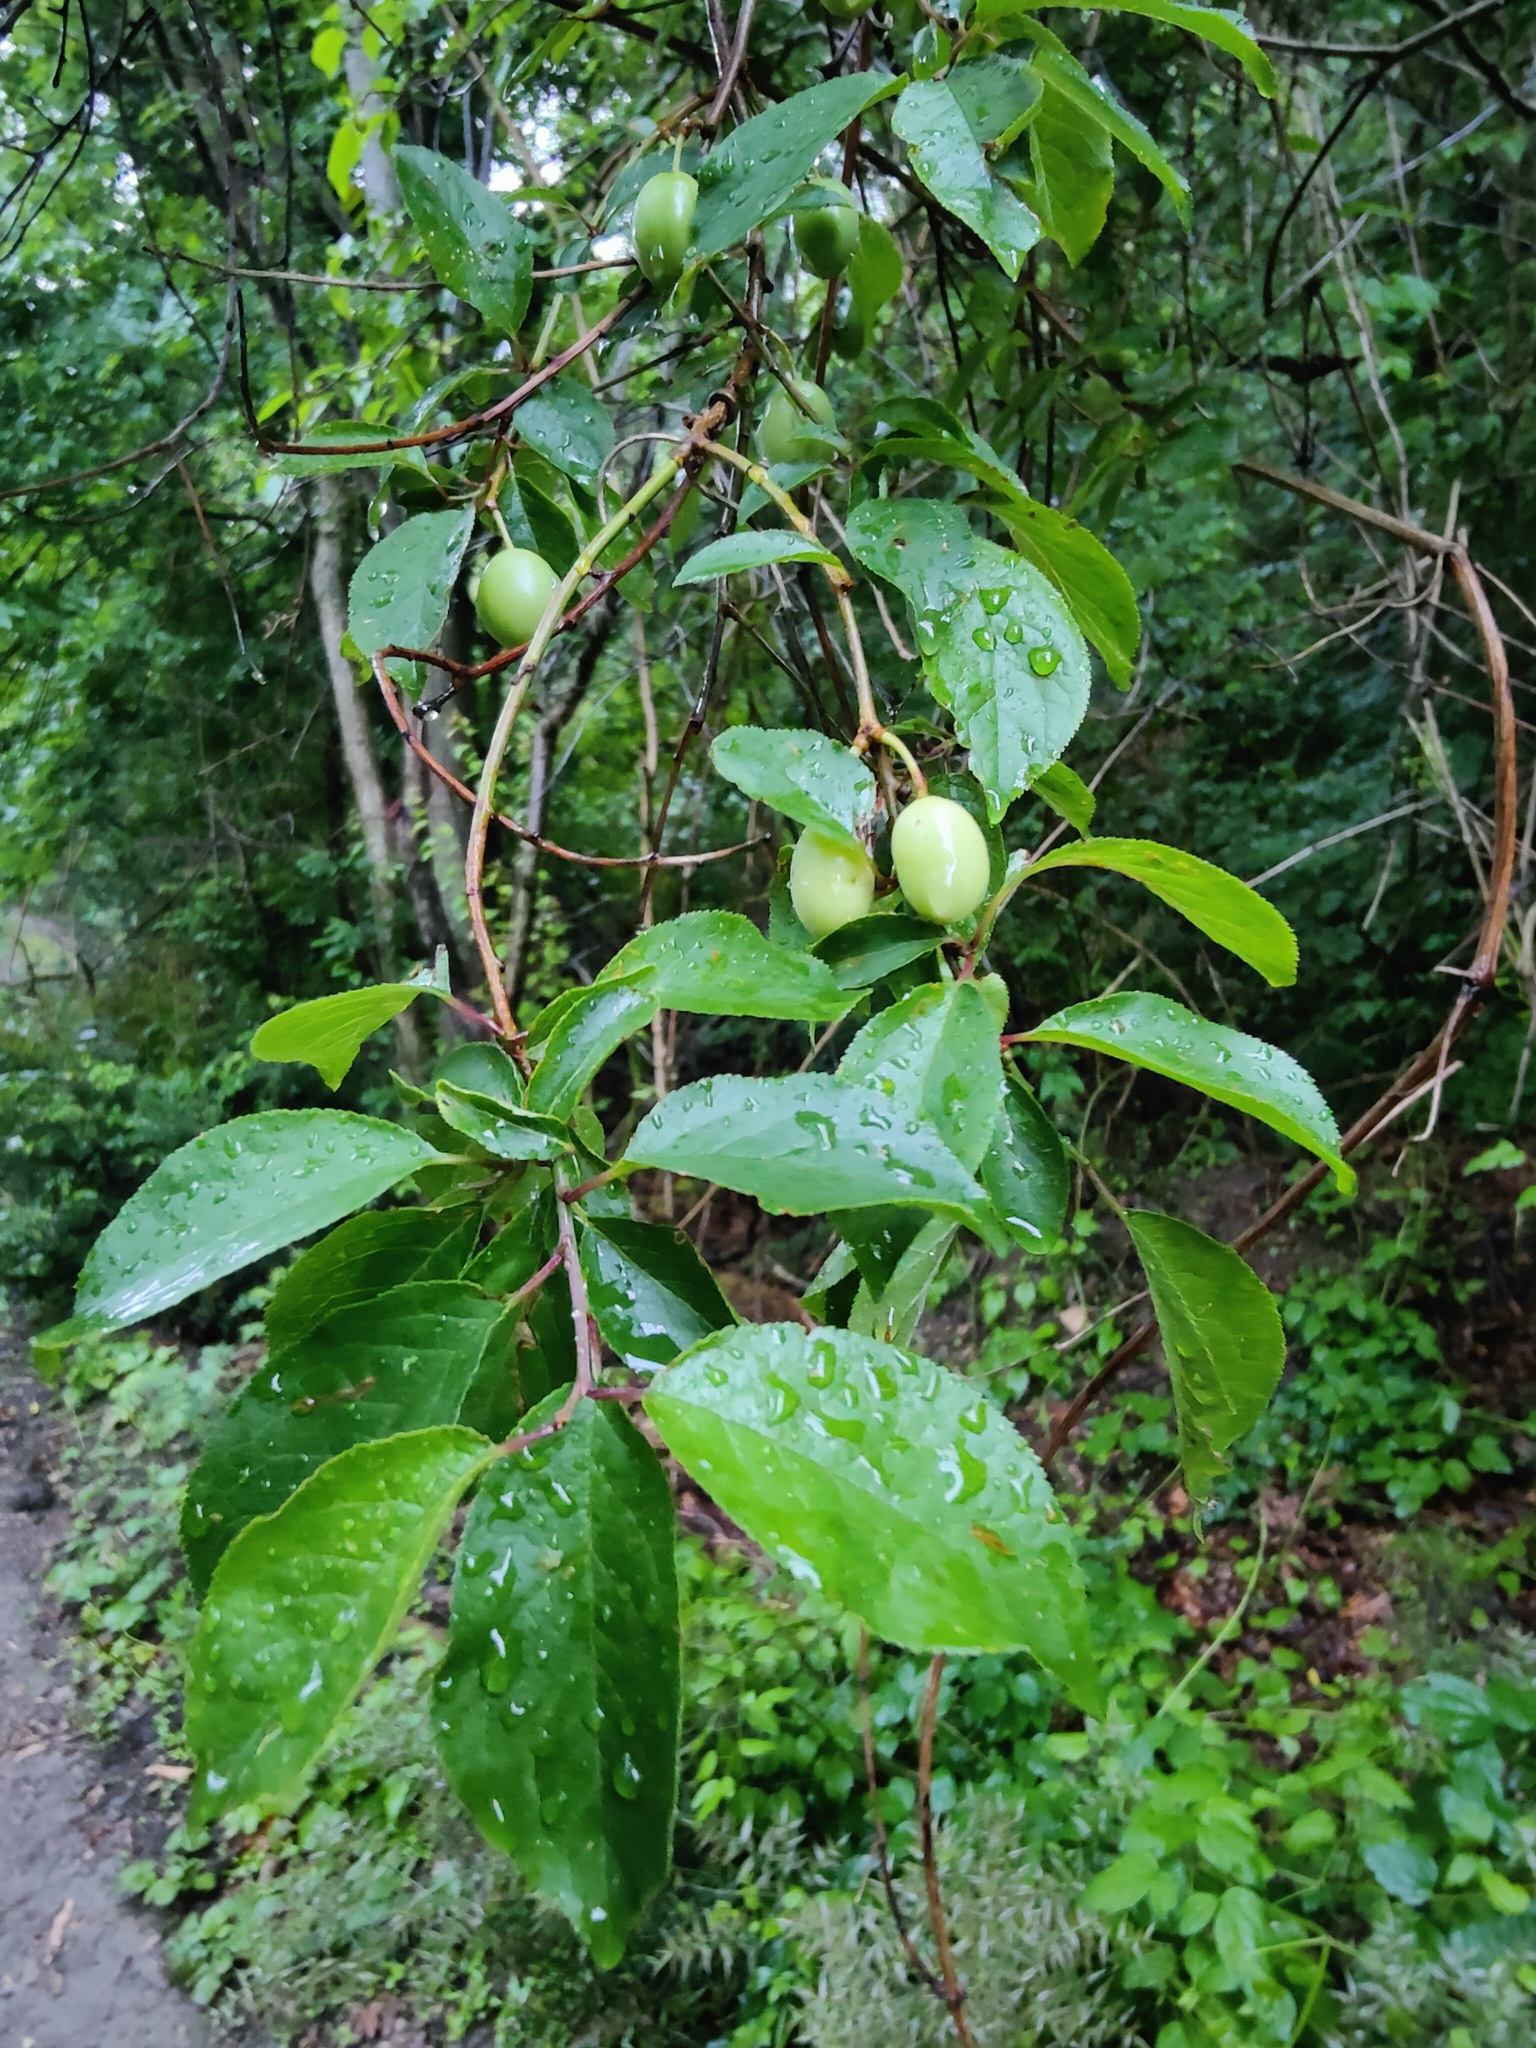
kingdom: Plantae
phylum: Tracheophyta
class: Magnoliopsida
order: Rosales
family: Rosaceae
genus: Prunus
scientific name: Prunus cerasifera
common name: Cherry plum
